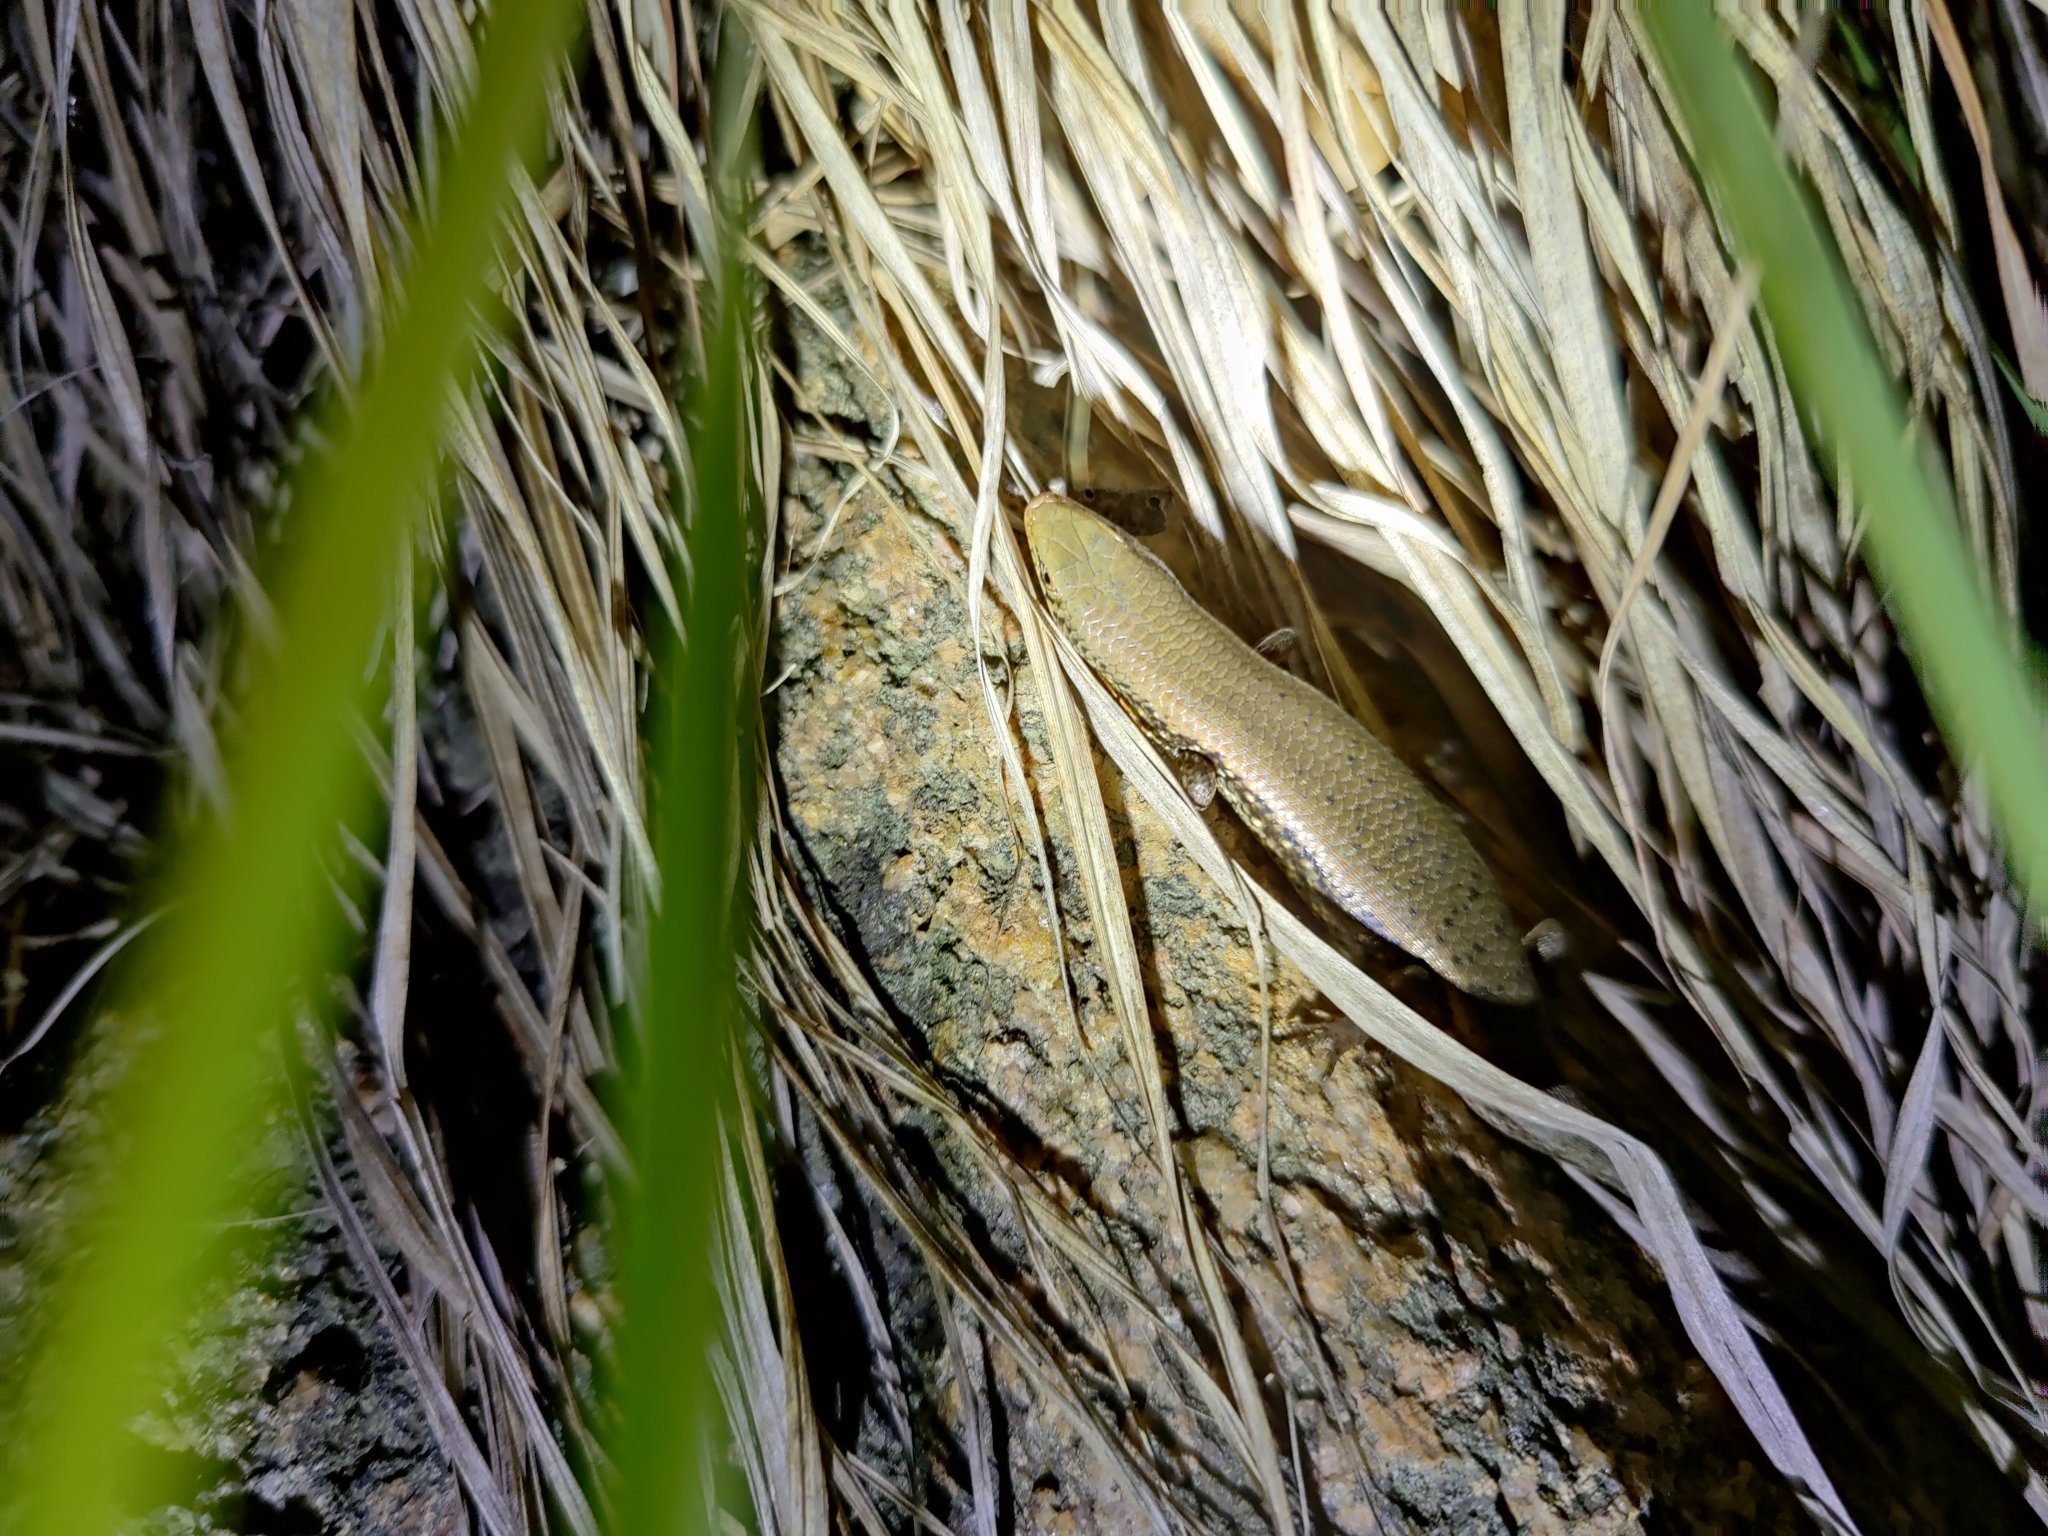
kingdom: Animalia
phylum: Chordata
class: Squamata
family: Scincidae
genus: Eutropis
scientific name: Eutropis macularia
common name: Bronze mabuya
